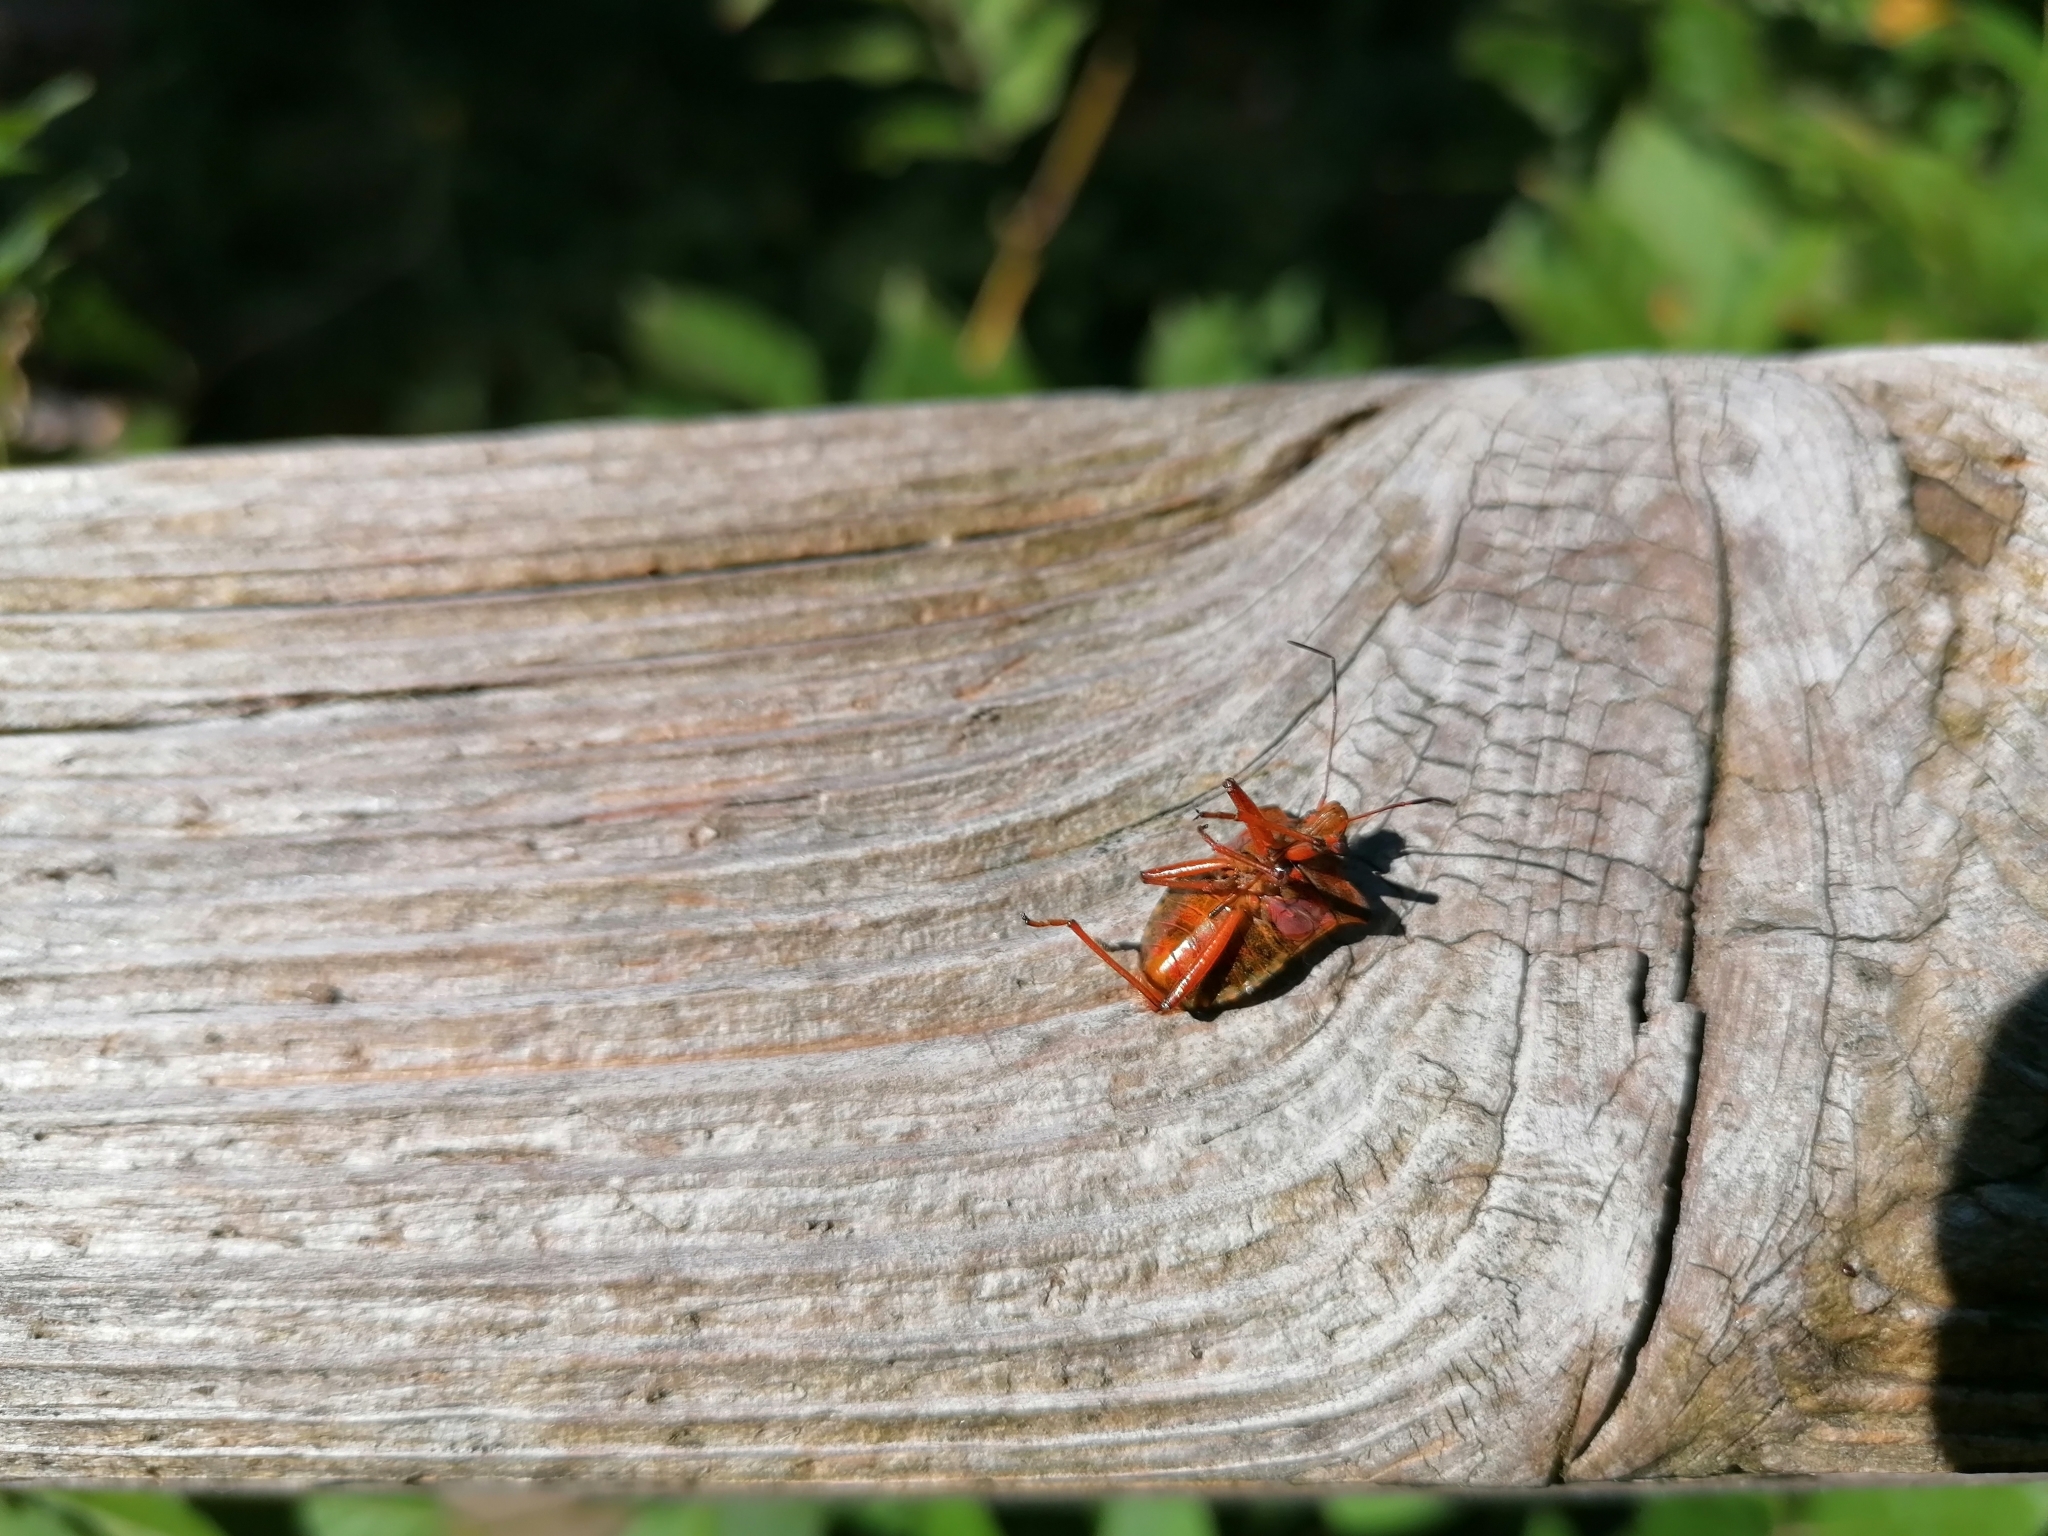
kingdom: Animalia
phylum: Arthropoda
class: Insecta
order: Hemiptera
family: Pentatomidae
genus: Pentatoma
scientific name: Pentatoma rufipes
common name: Forest bug
